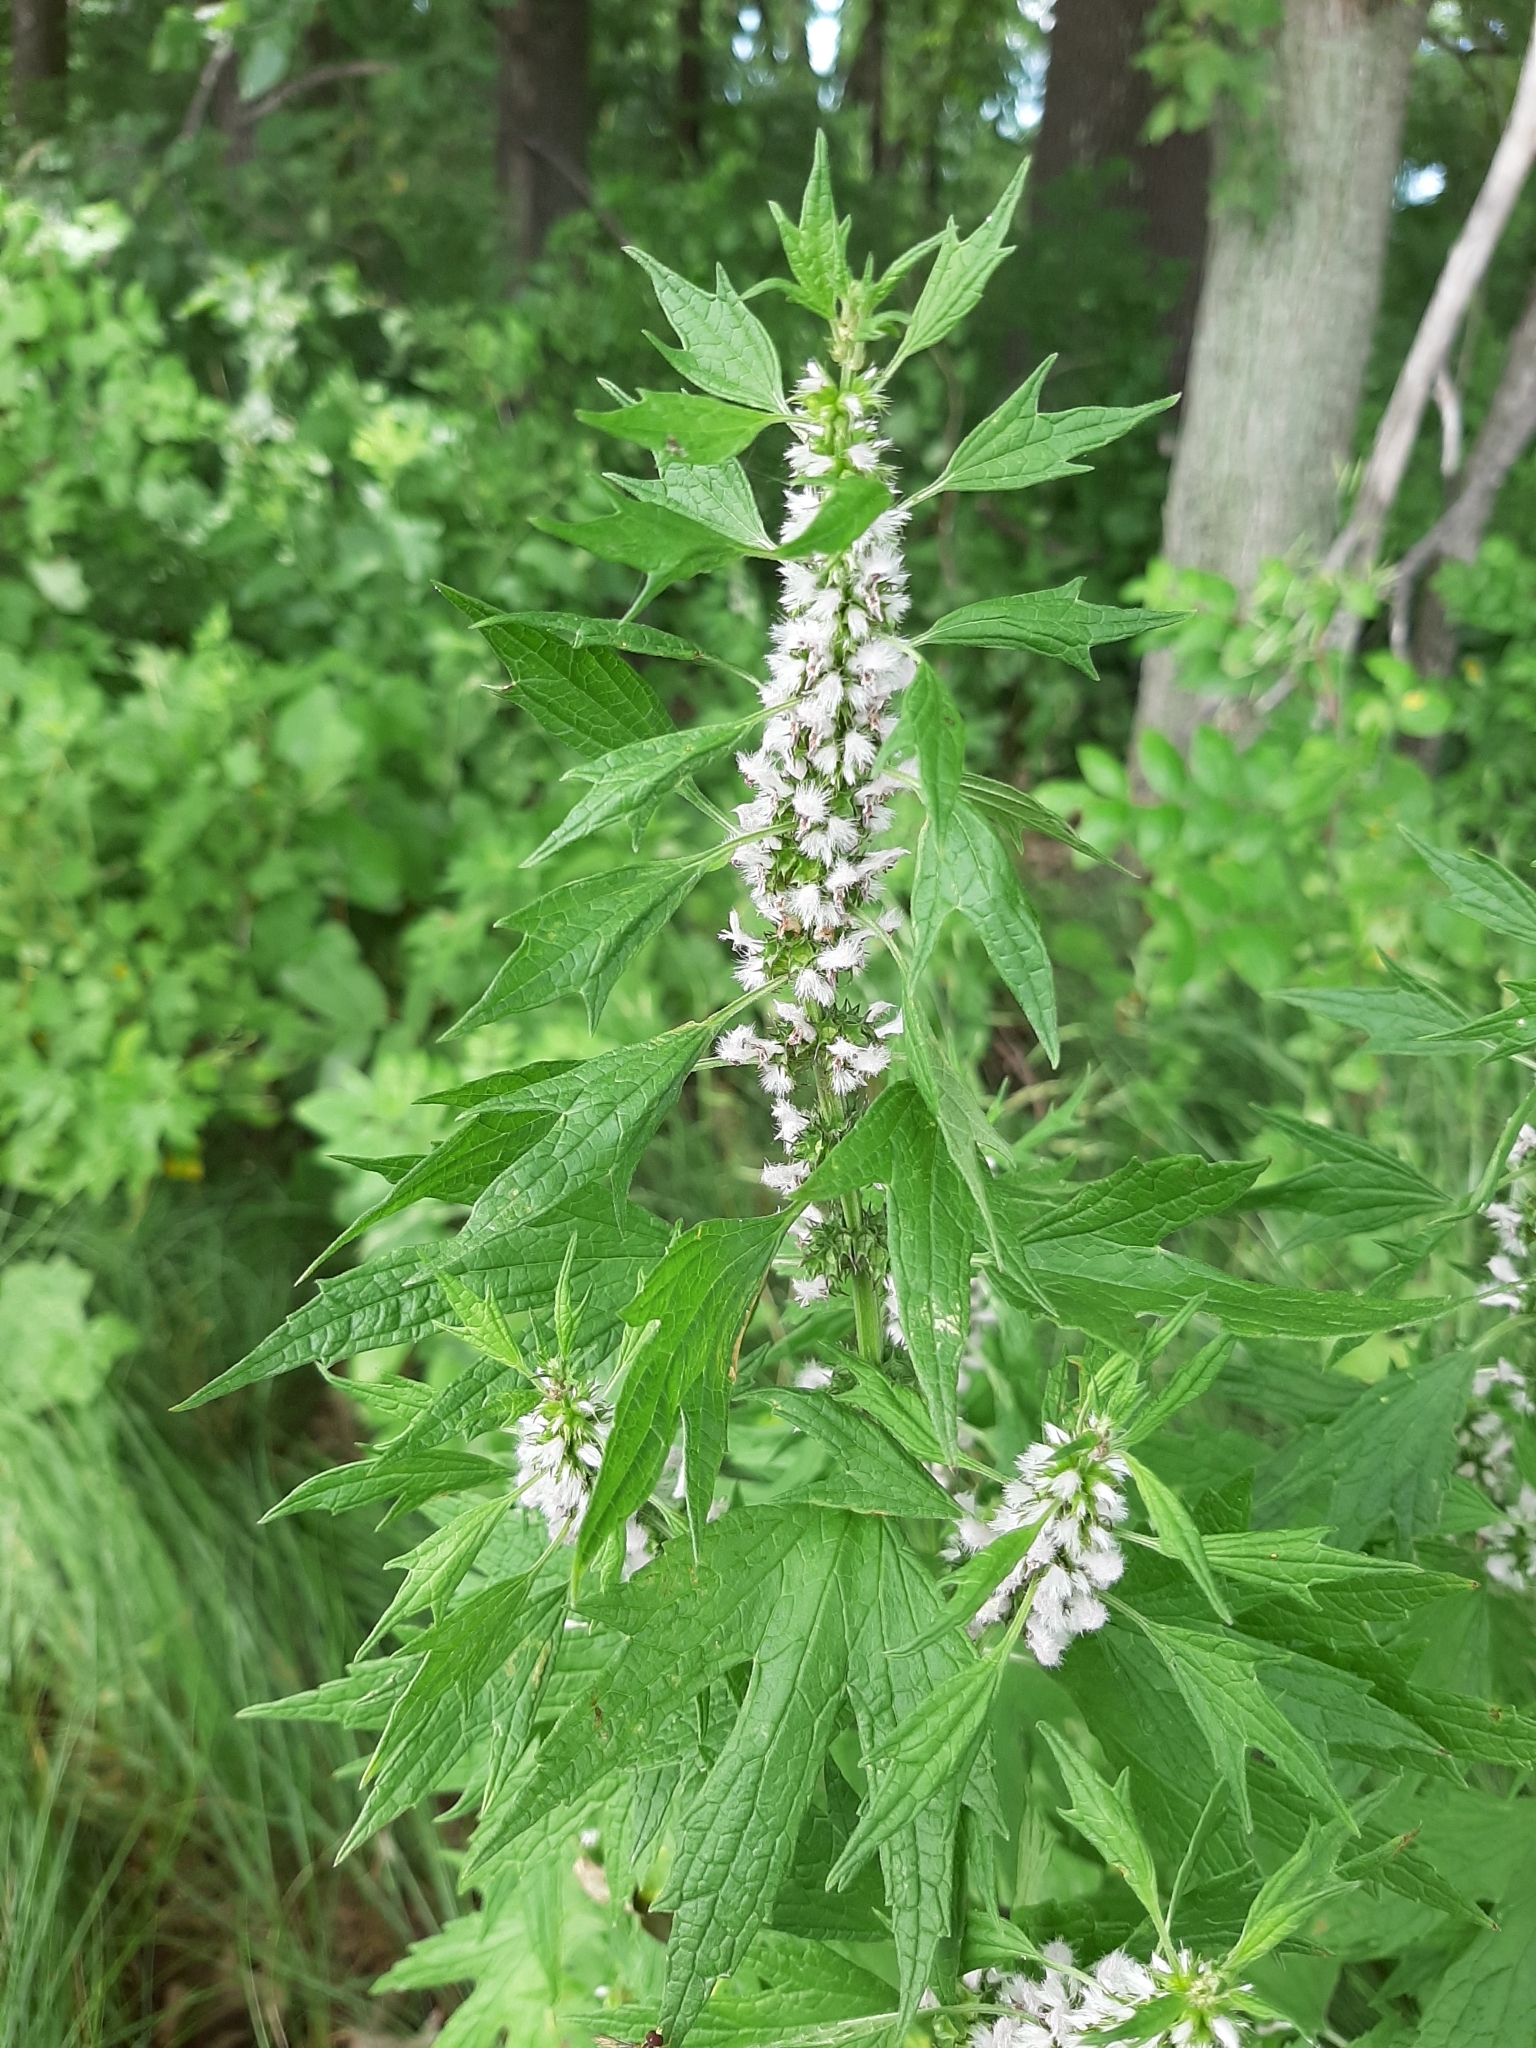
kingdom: Plantae
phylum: Tracheophyta
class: Magnoliopsida
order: Lamiales
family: Lamiaceae
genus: Leonurus
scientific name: Leonurus cardiaca
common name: Motherwort
